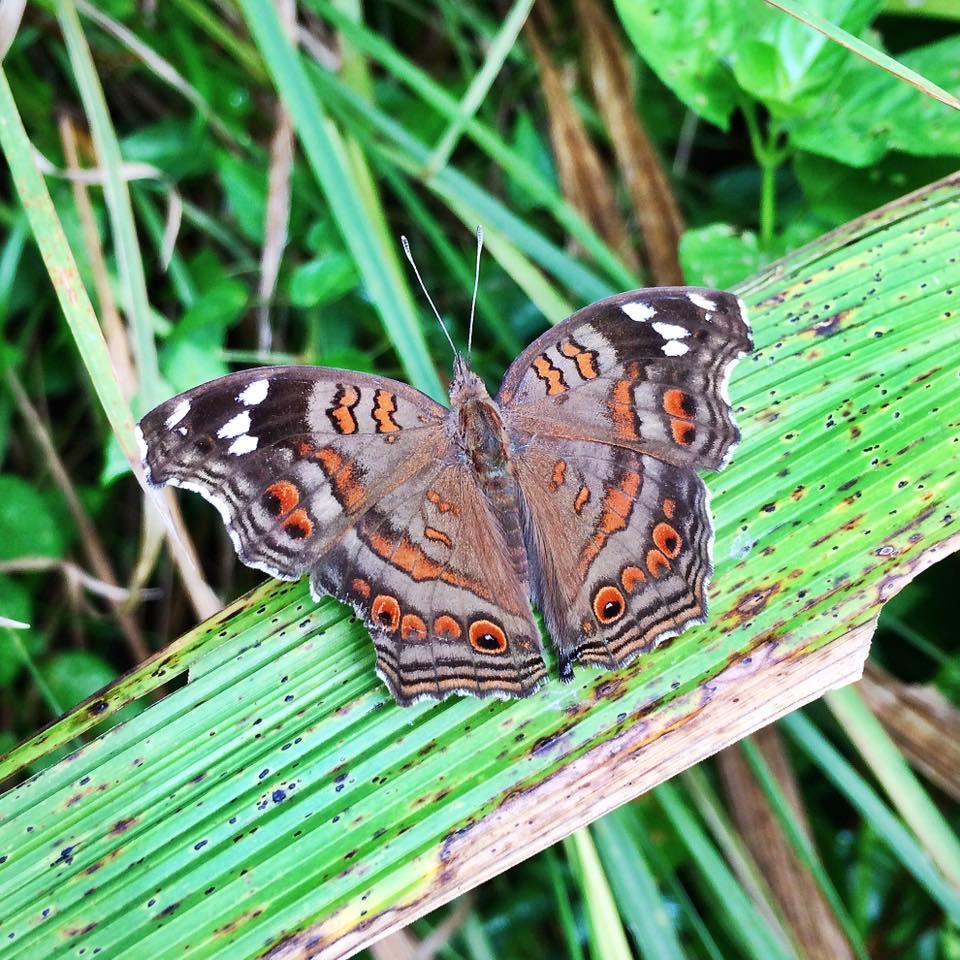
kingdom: Animalia
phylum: Arthropoda
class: Insecta
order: Lepidoptera
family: Nymphalidae
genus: Junonia
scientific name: Junonia natalica
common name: Brown pansy
